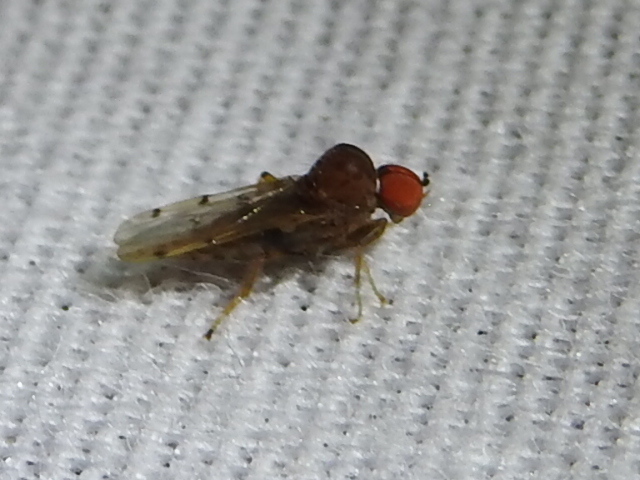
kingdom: Animalia
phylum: Arthropoda
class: Insecta
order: Diptera
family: Hybotidae
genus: Syneches
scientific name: Syneches simplex
